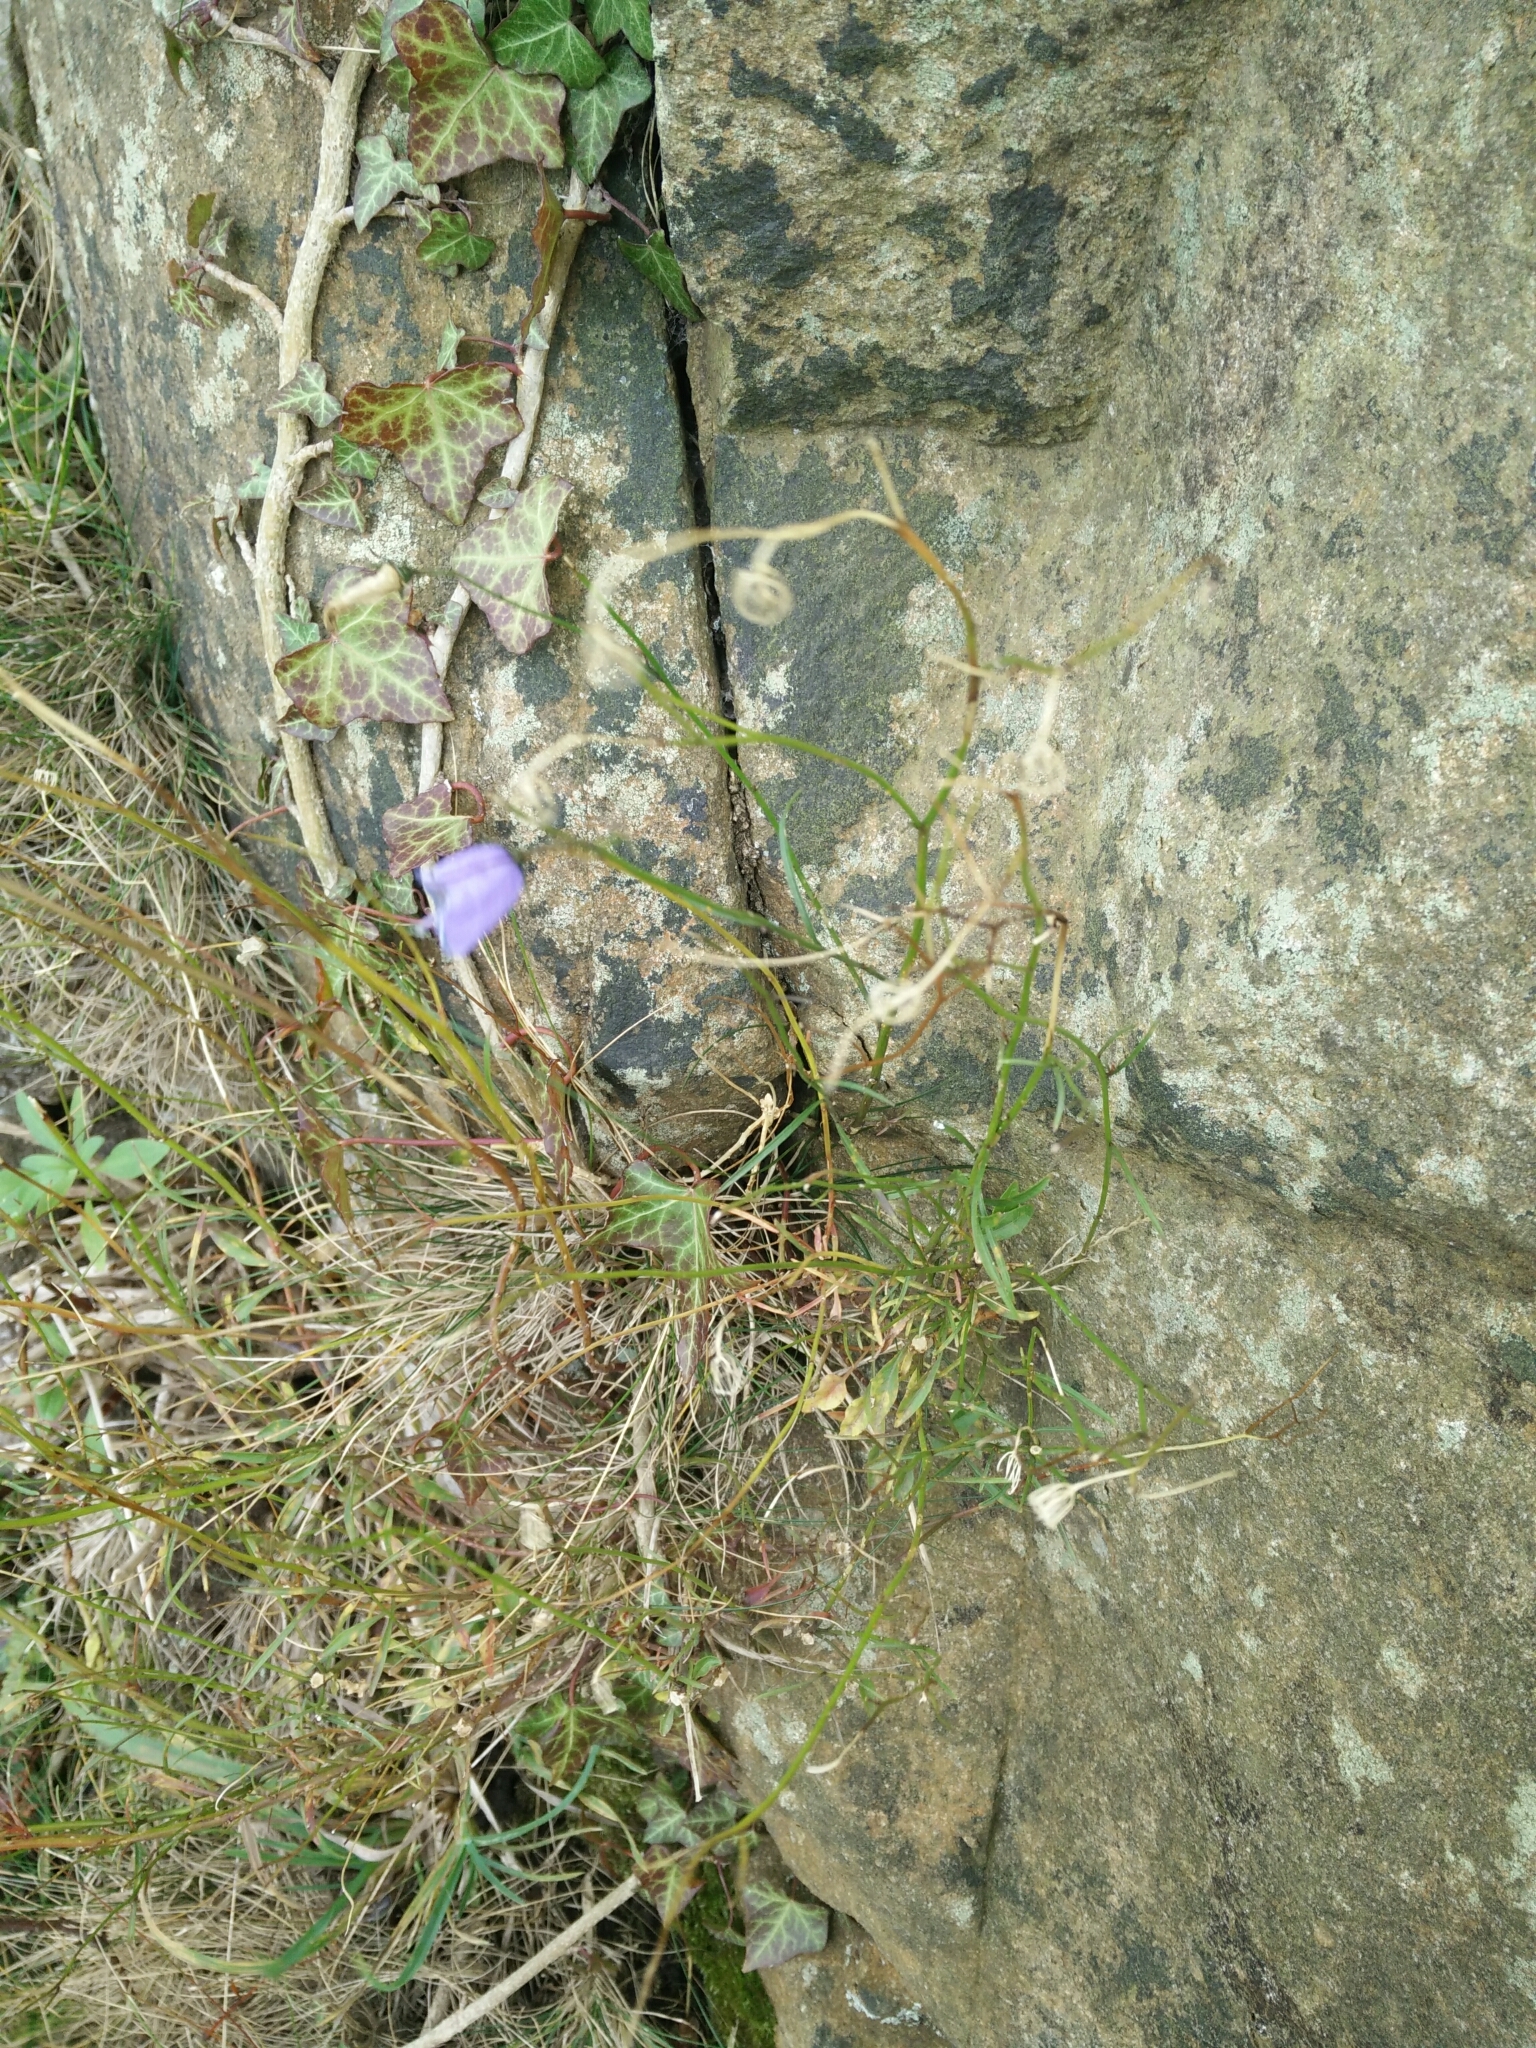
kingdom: Plantae
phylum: Tracheophyta
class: Magnoliopsida
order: Asterales
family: Campanulaceae
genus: Campanula
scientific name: Campanula rotundifolia
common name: Harebell
